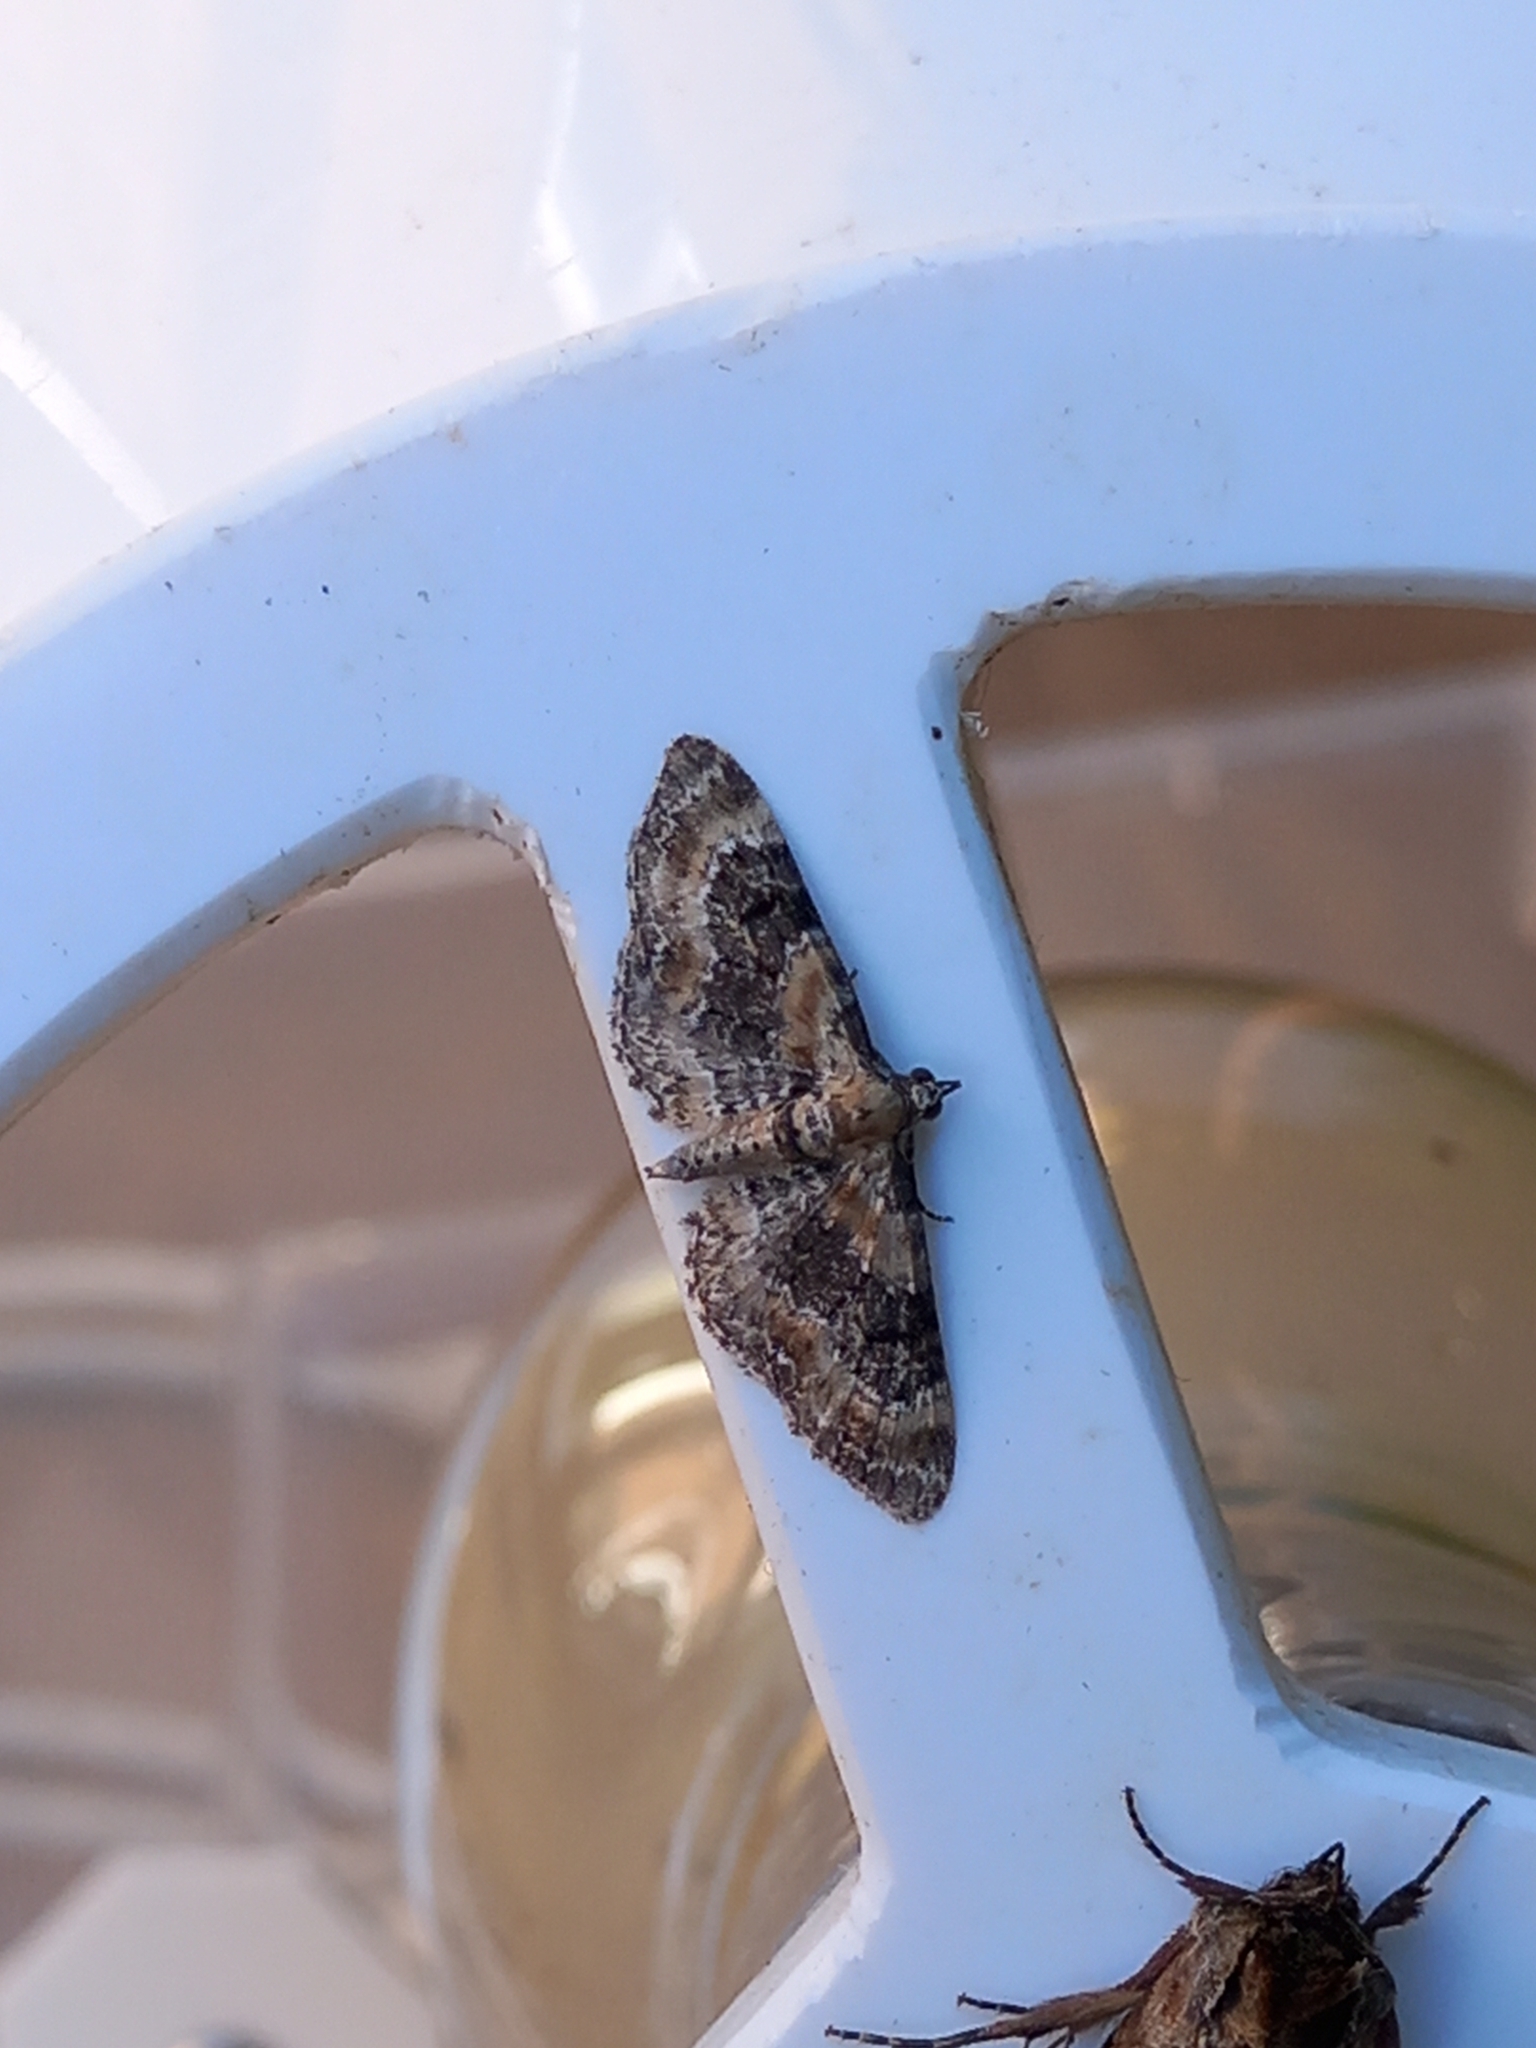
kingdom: Animalia
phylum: Arthropoda
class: Insecta
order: Lepidoptera
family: Geometridae
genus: Eupithecia
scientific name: Eupithecia pulchellata
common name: Foxglove pug
